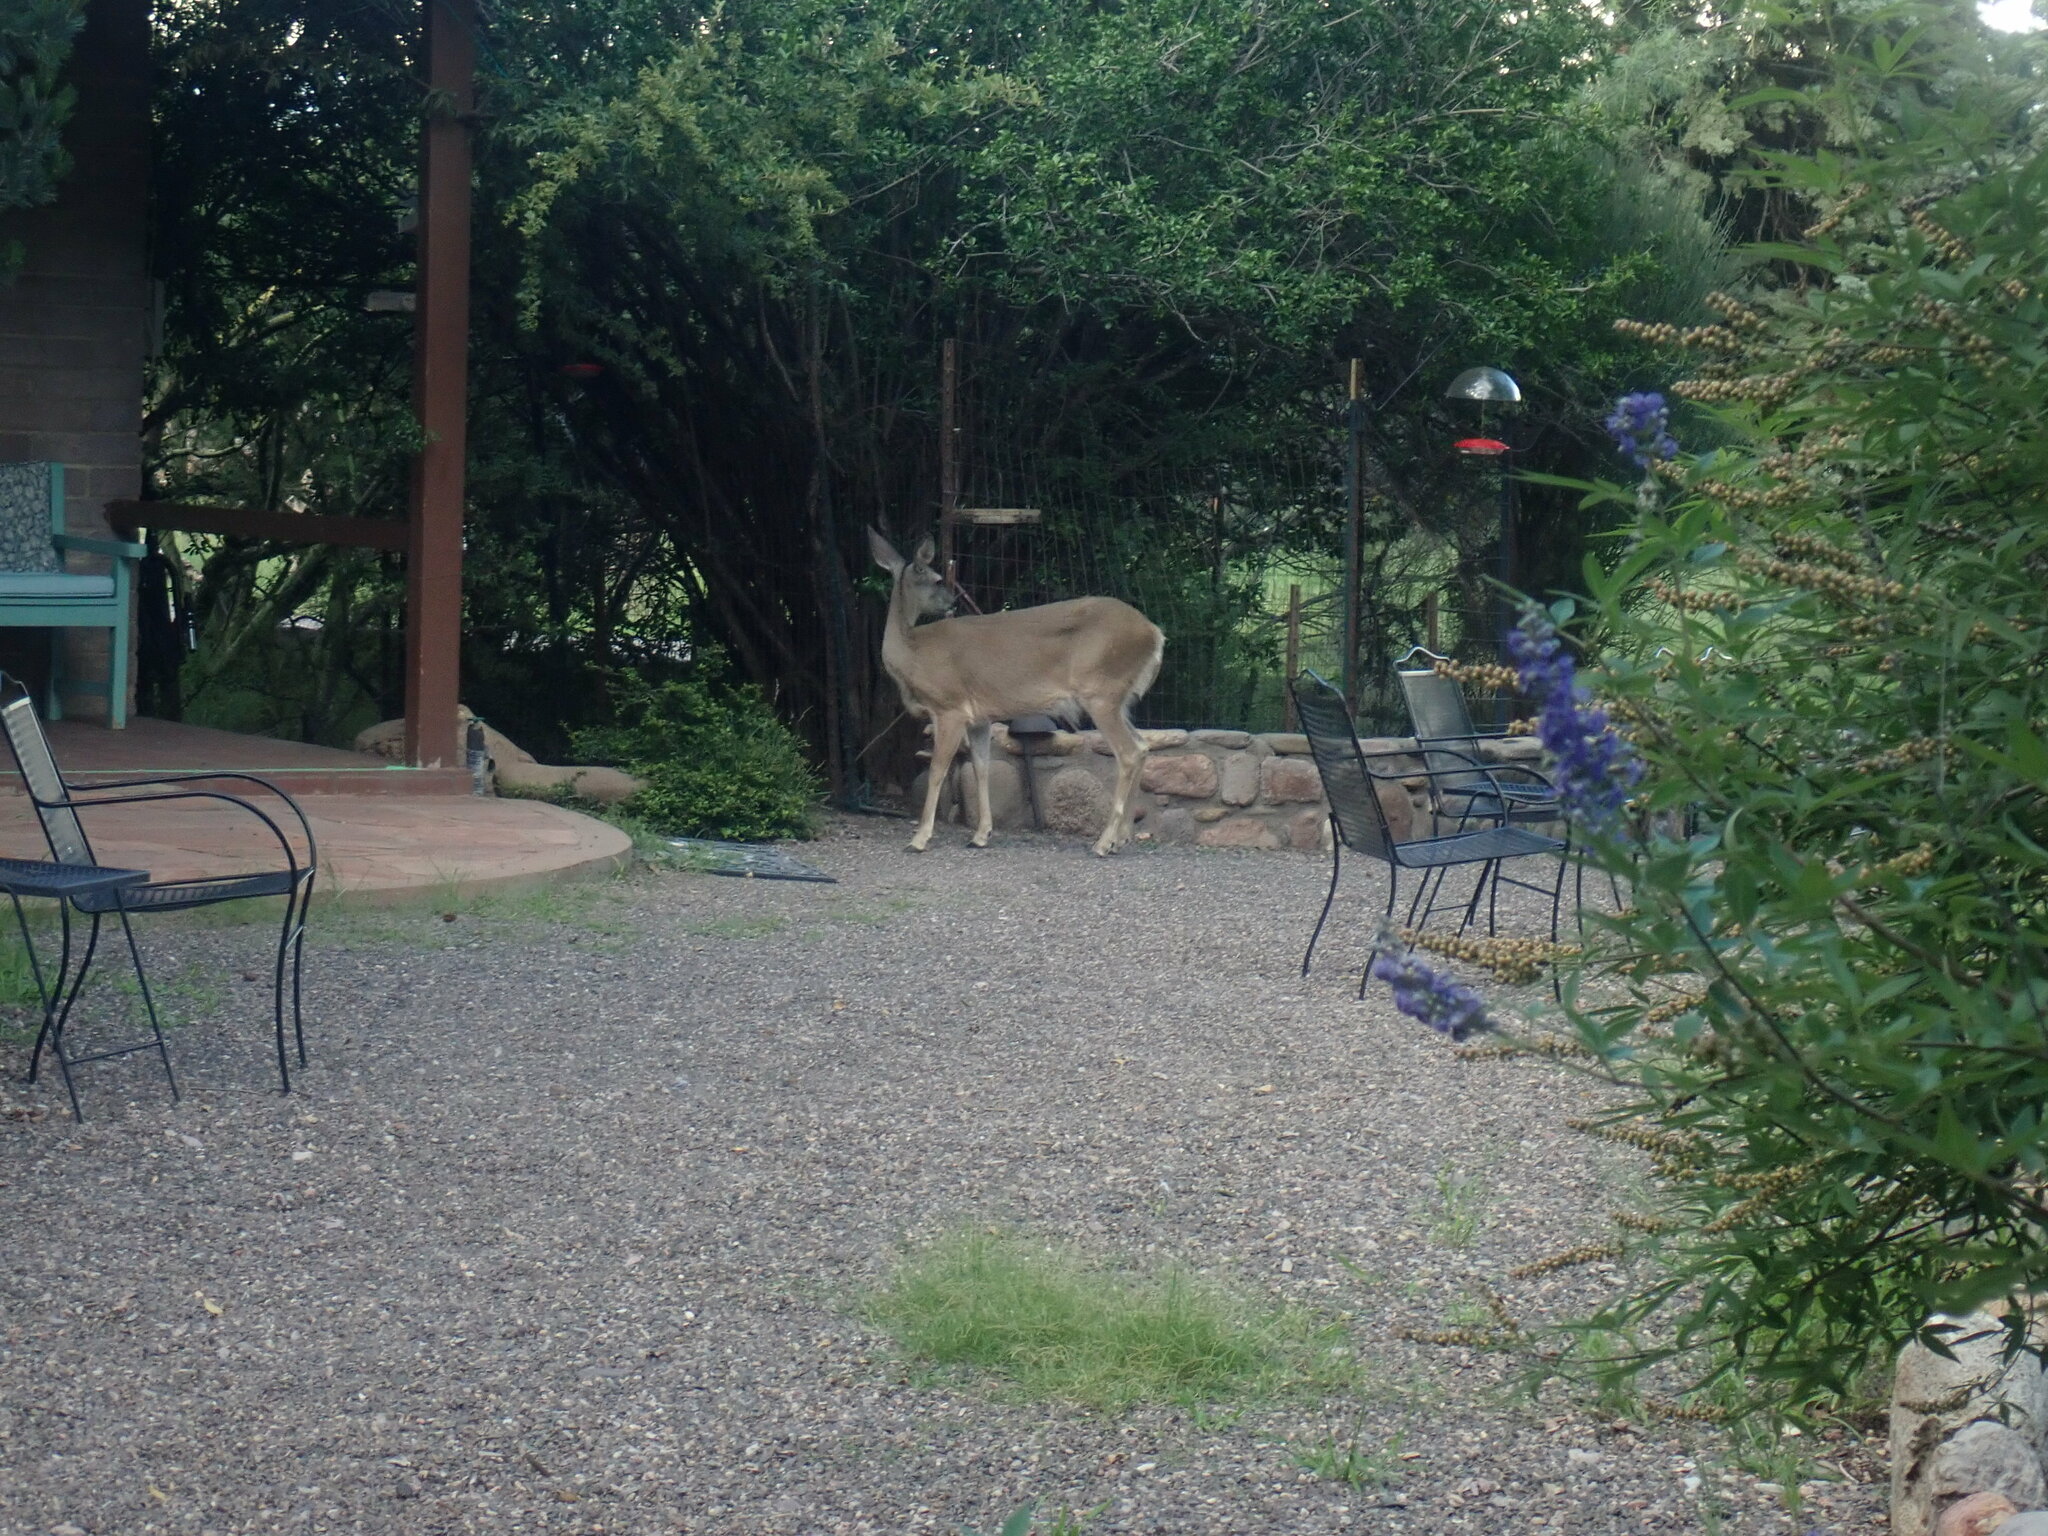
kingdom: Animalia
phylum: Chordata
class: Mammalia
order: Artiodactyla
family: Cervidae
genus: Odocoileus
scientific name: Odocoileus virginianus
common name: White-tailed deer
